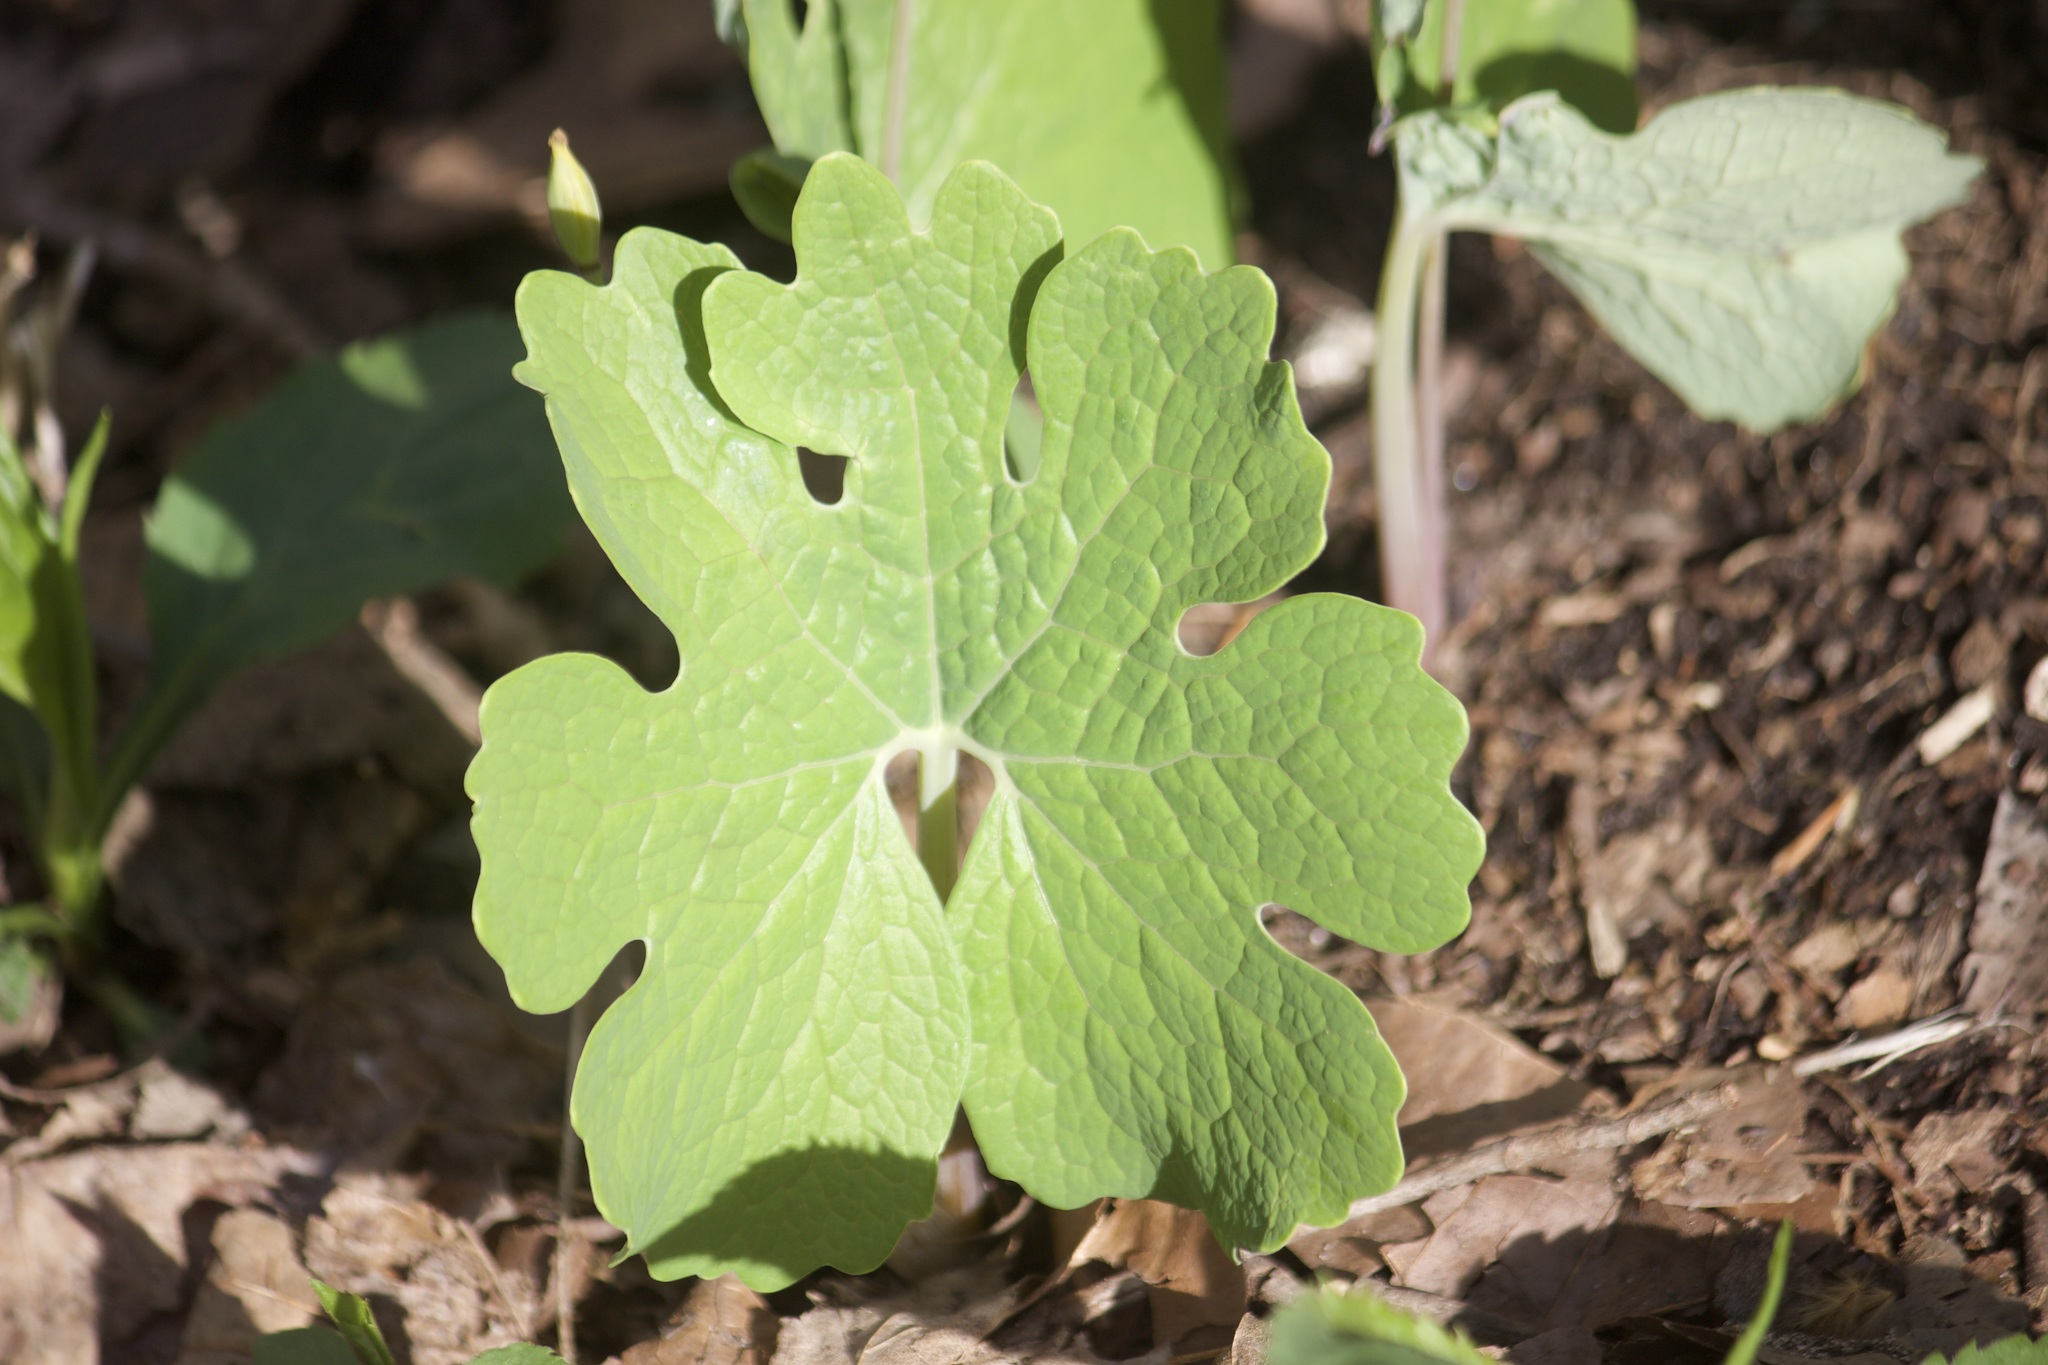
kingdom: Plantae
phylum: Tracheophyta
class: Magnoliopsida
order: Ranunculales
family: Papaveraceae
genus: Sanguinaria
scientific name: Sanguinaria canadensis
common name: Bloodroot
